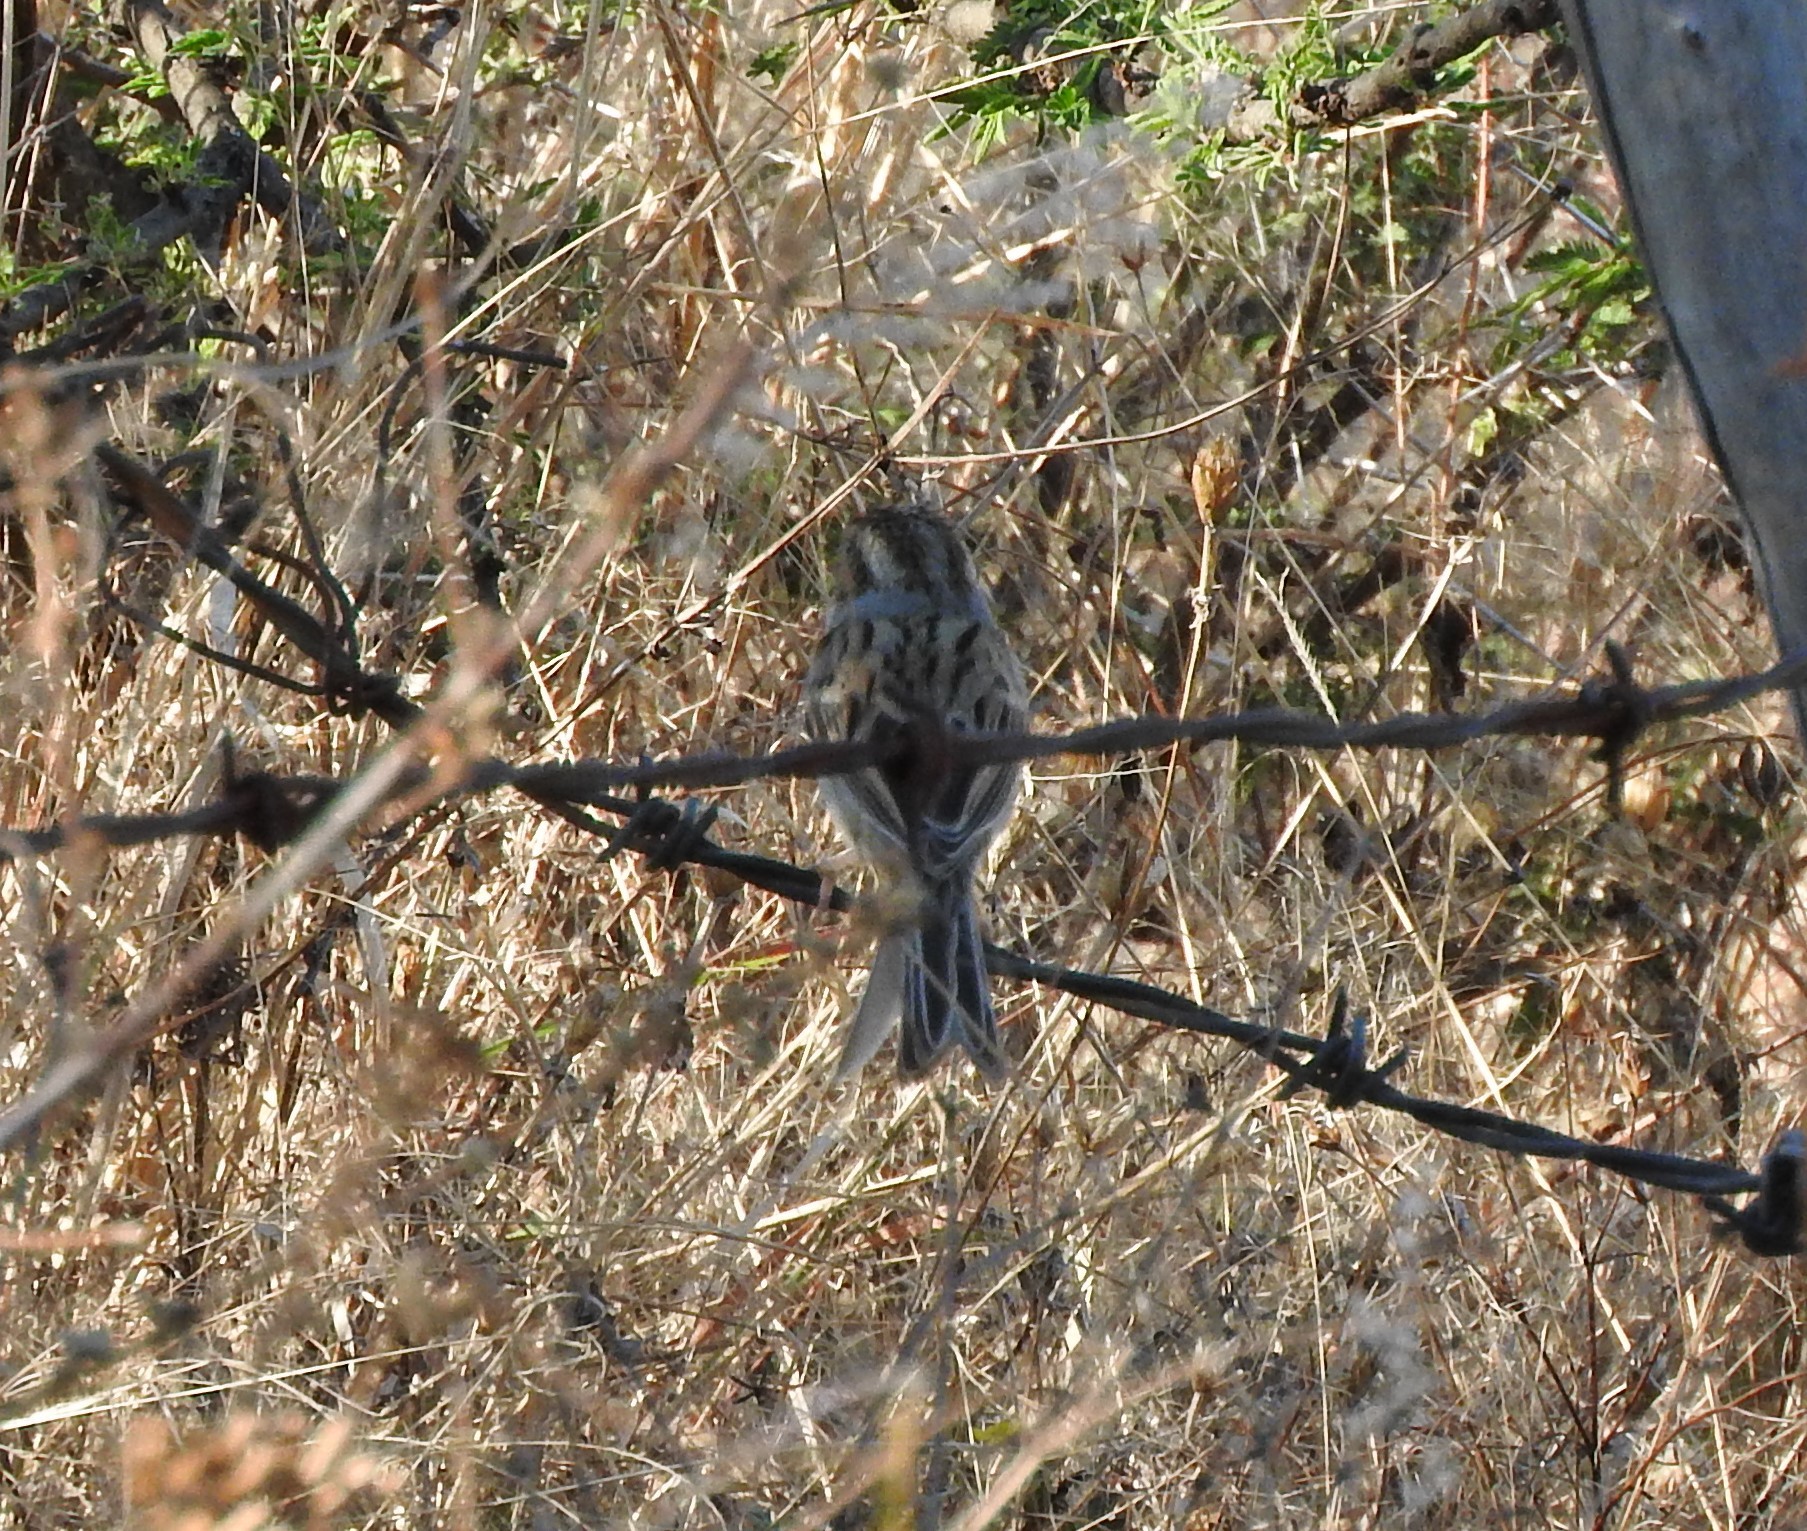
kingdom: Animalia
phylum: Chordata
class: Aves
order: Passeriformes
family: Passerellidae
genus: Spizella
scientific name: Spizella pallida
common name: Clay-colored sparrow
